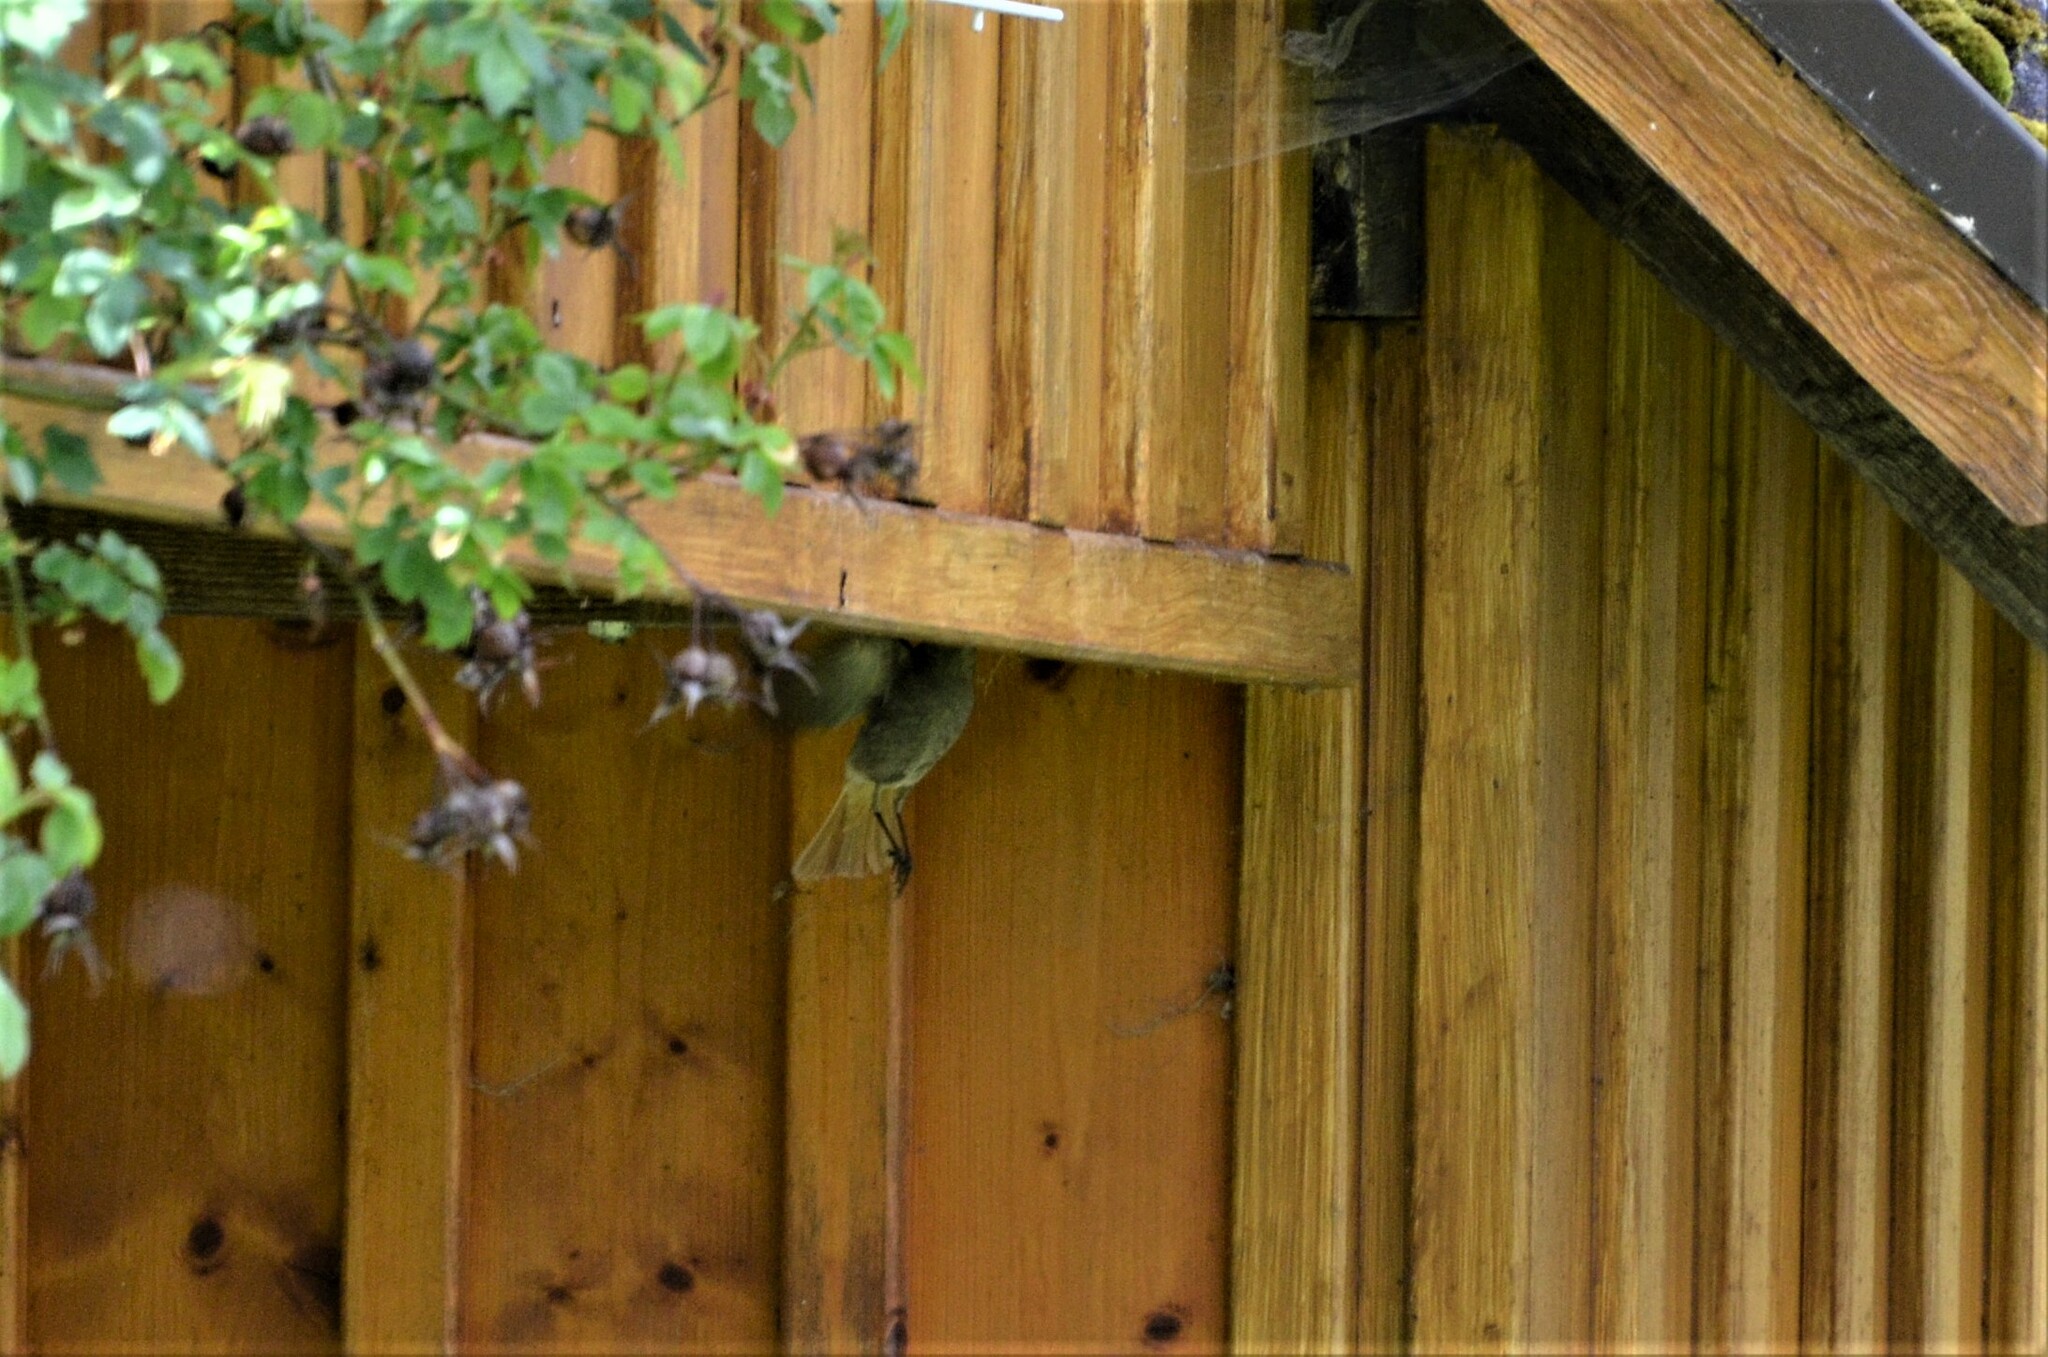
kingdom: Animalia
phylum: Chordata
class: Aves
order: Passeriformes
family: Muscicapidae
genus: Phoenicurus
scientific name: Phoenicurus ochruros
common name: Black redstart
